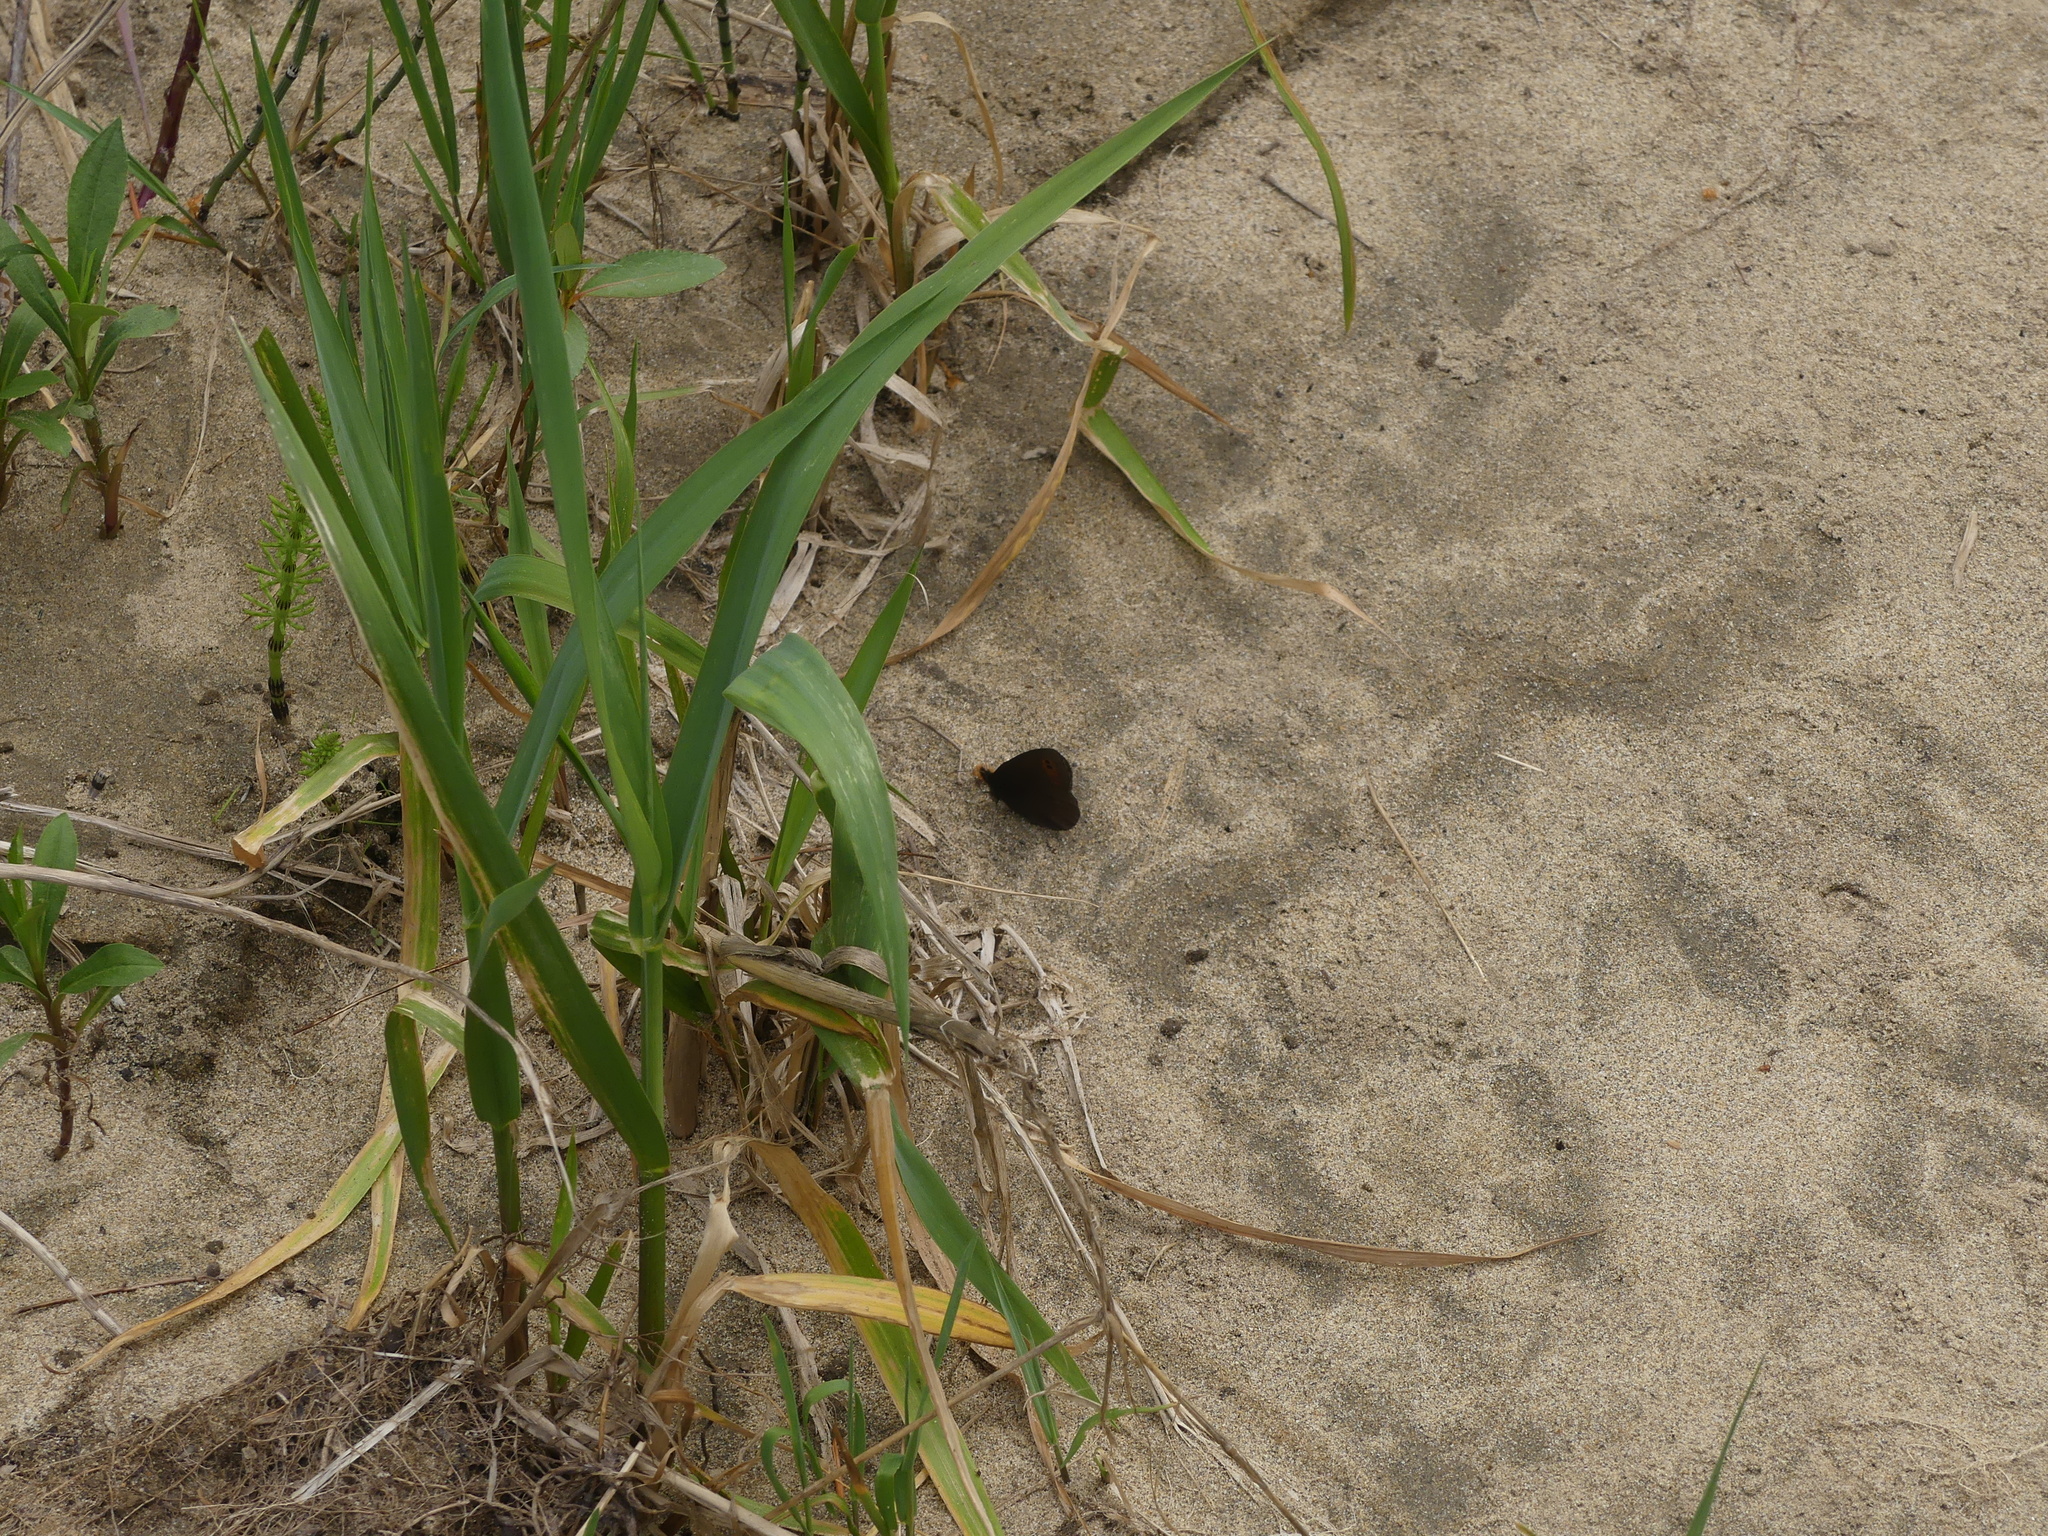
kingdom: Animalia
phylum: Arthropoda
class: Insecta
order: Lepidoptera
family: Nymphalidae
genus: Erebia
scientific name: Erebia epipsodea
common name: Common alpine
